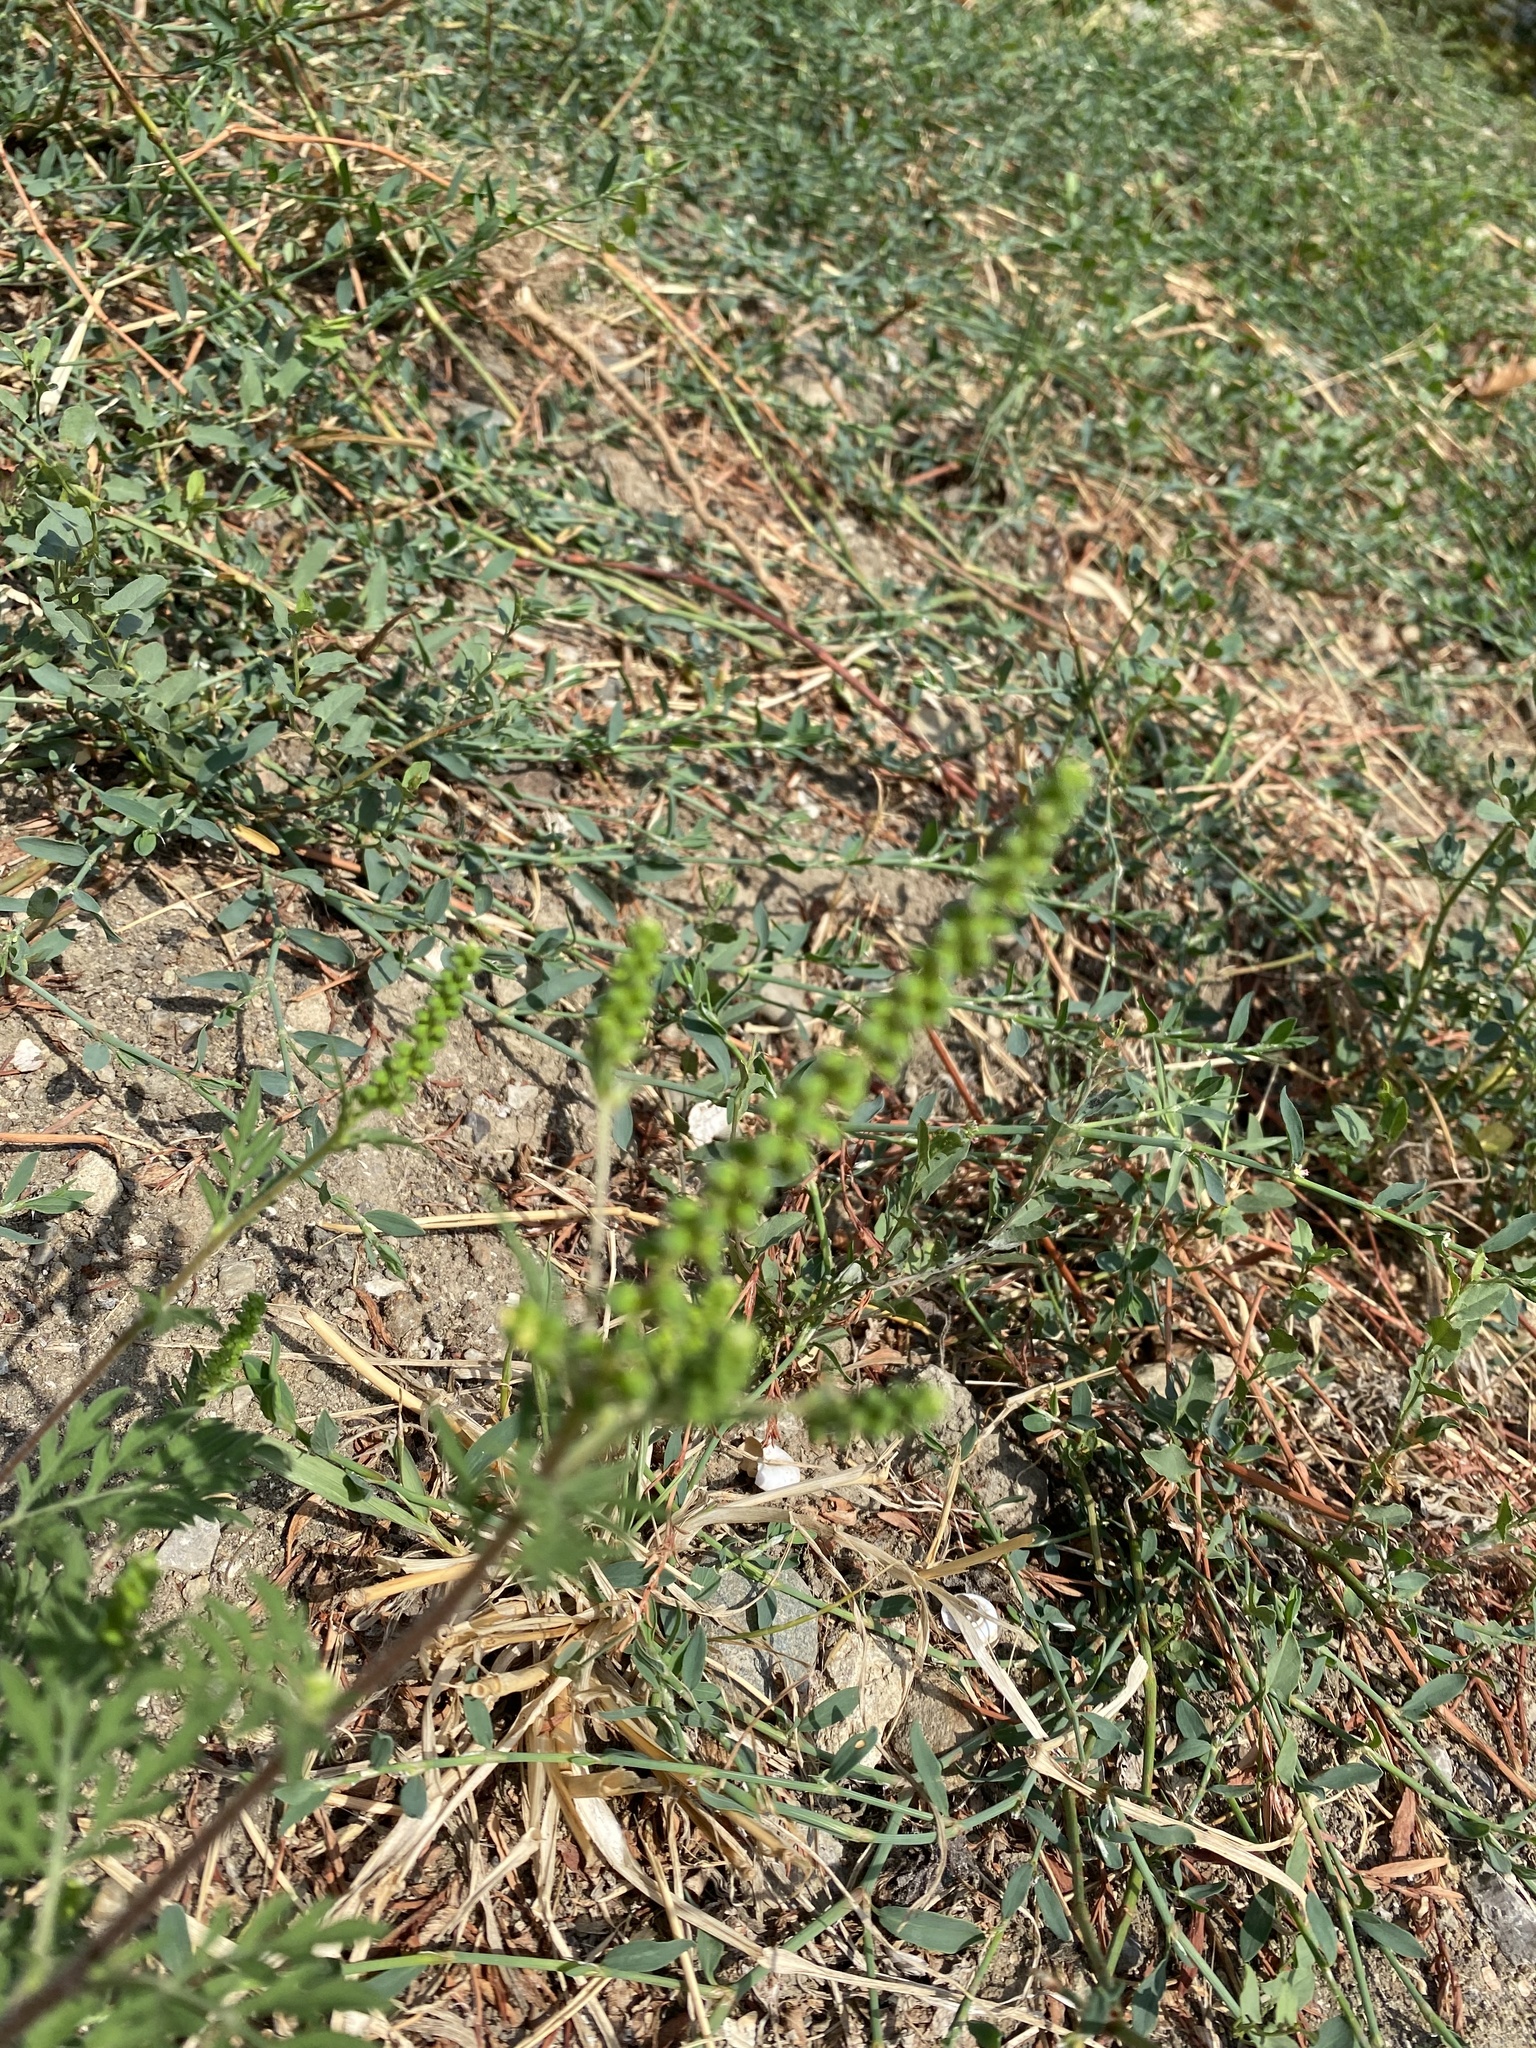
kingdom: Plantae
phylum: Tracheophyta
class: Magnoliopsida
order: Asterales
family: Asteraceae
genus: Ambrosia
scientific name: Ambrosia artemisiifolia
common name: Annual ragweed
